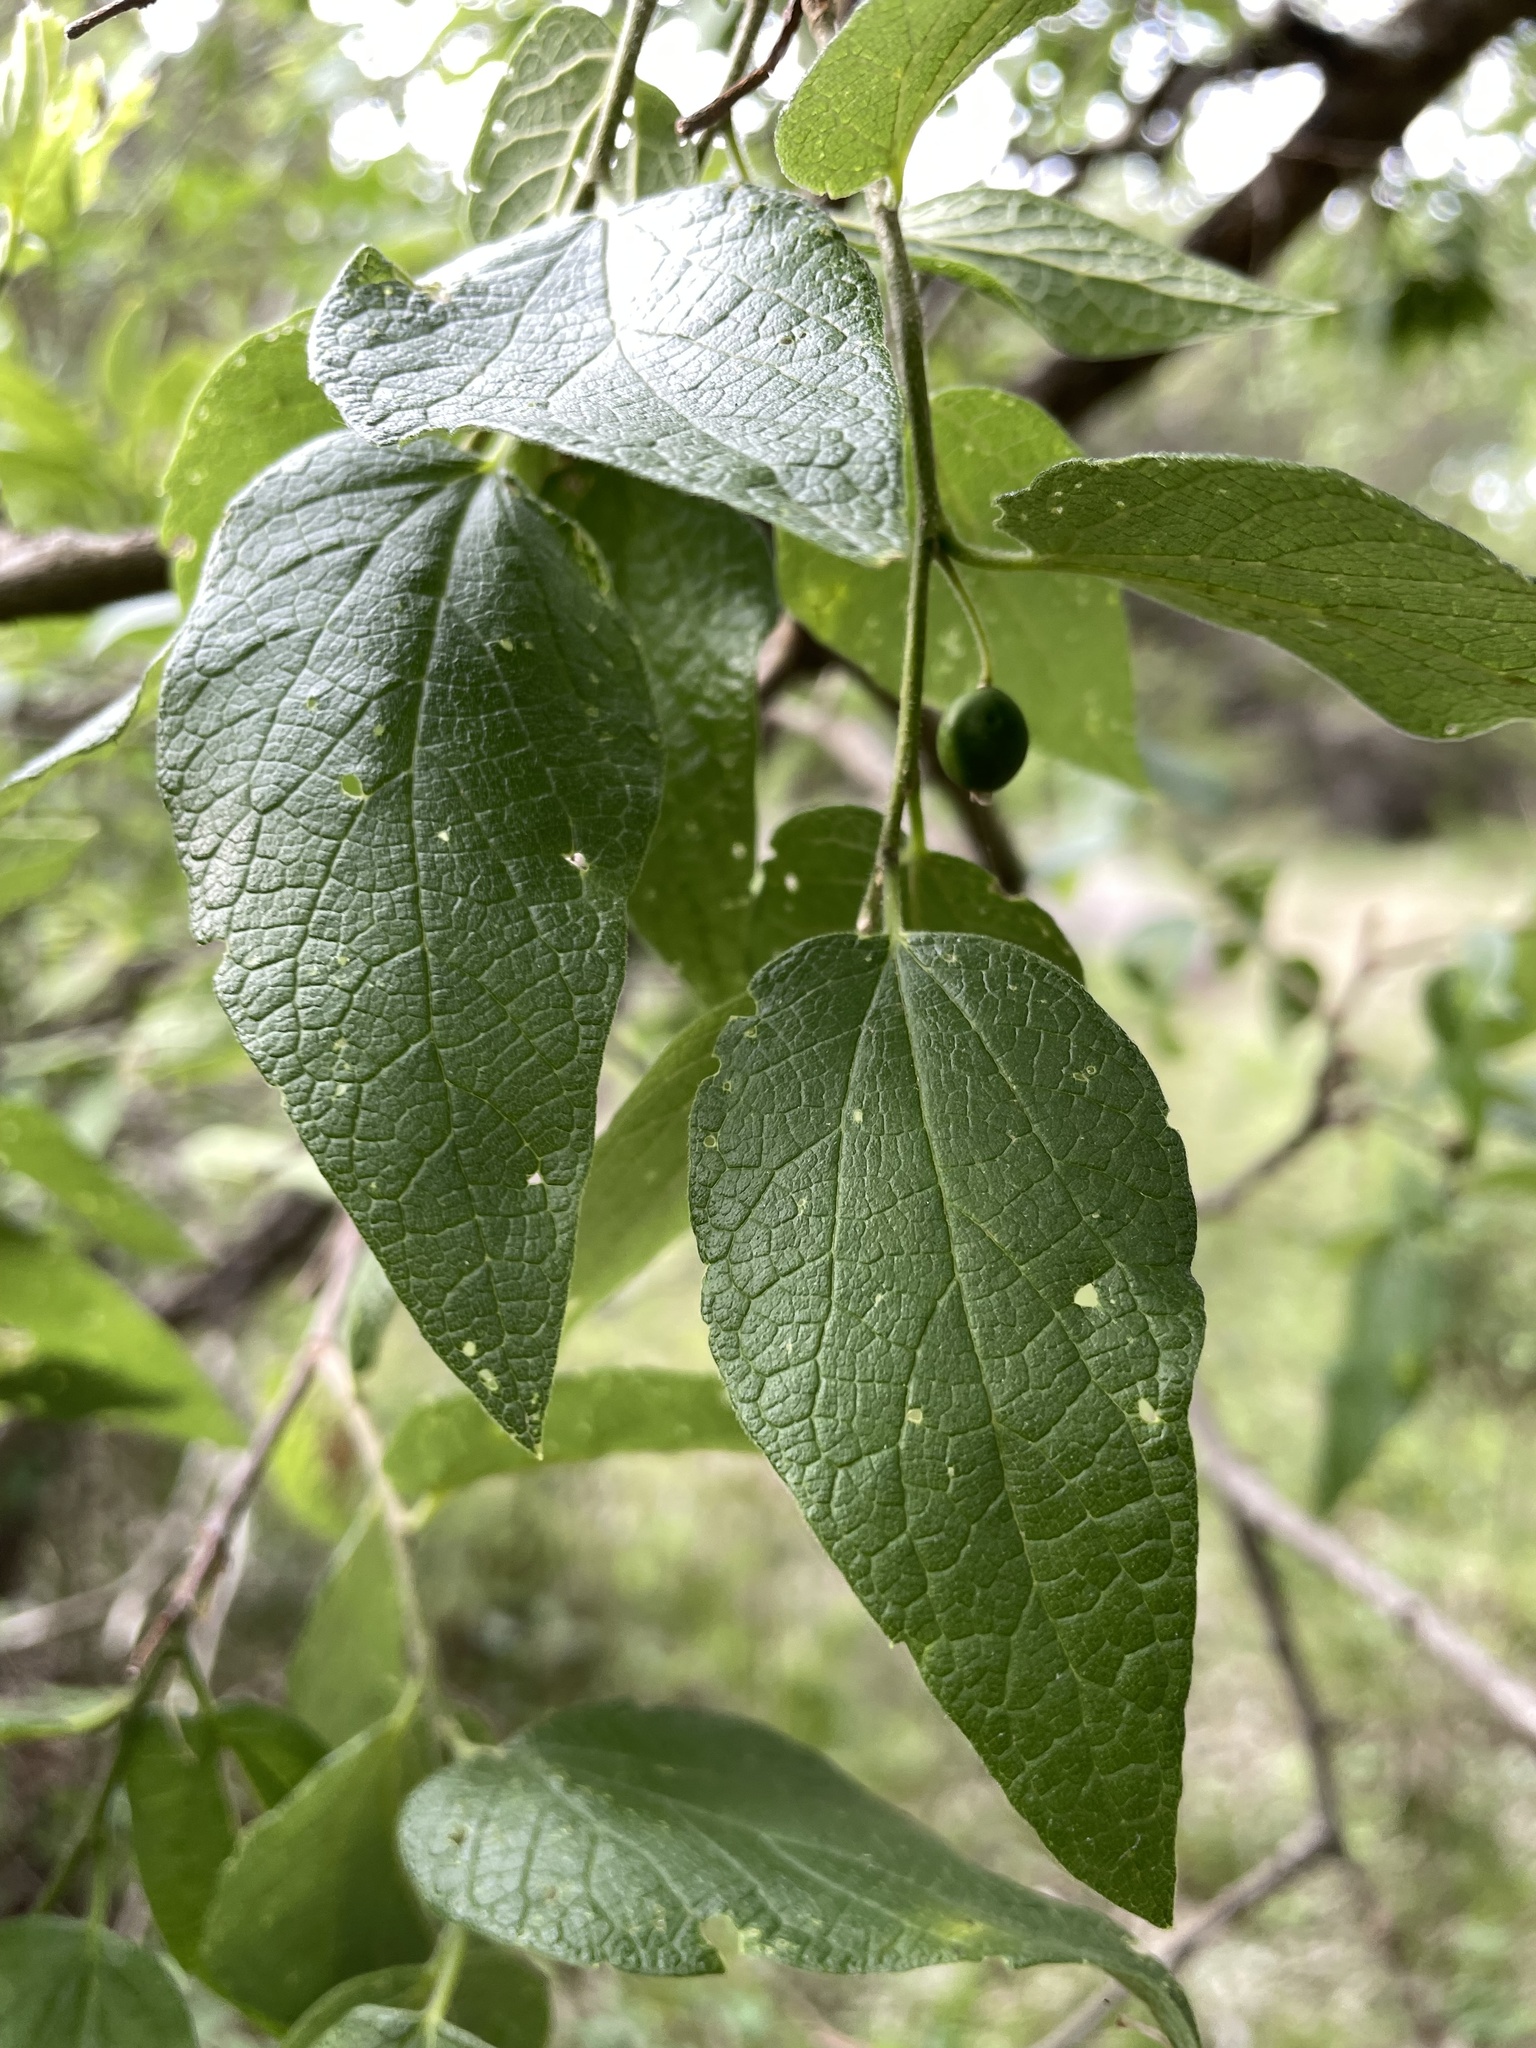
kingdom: Plantae
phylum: Tracheophyta
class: Magnoliopsida
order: Rosales
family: Cannabaceae
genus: Celtis
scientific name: Celtis laevigata
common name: Sugarberry
